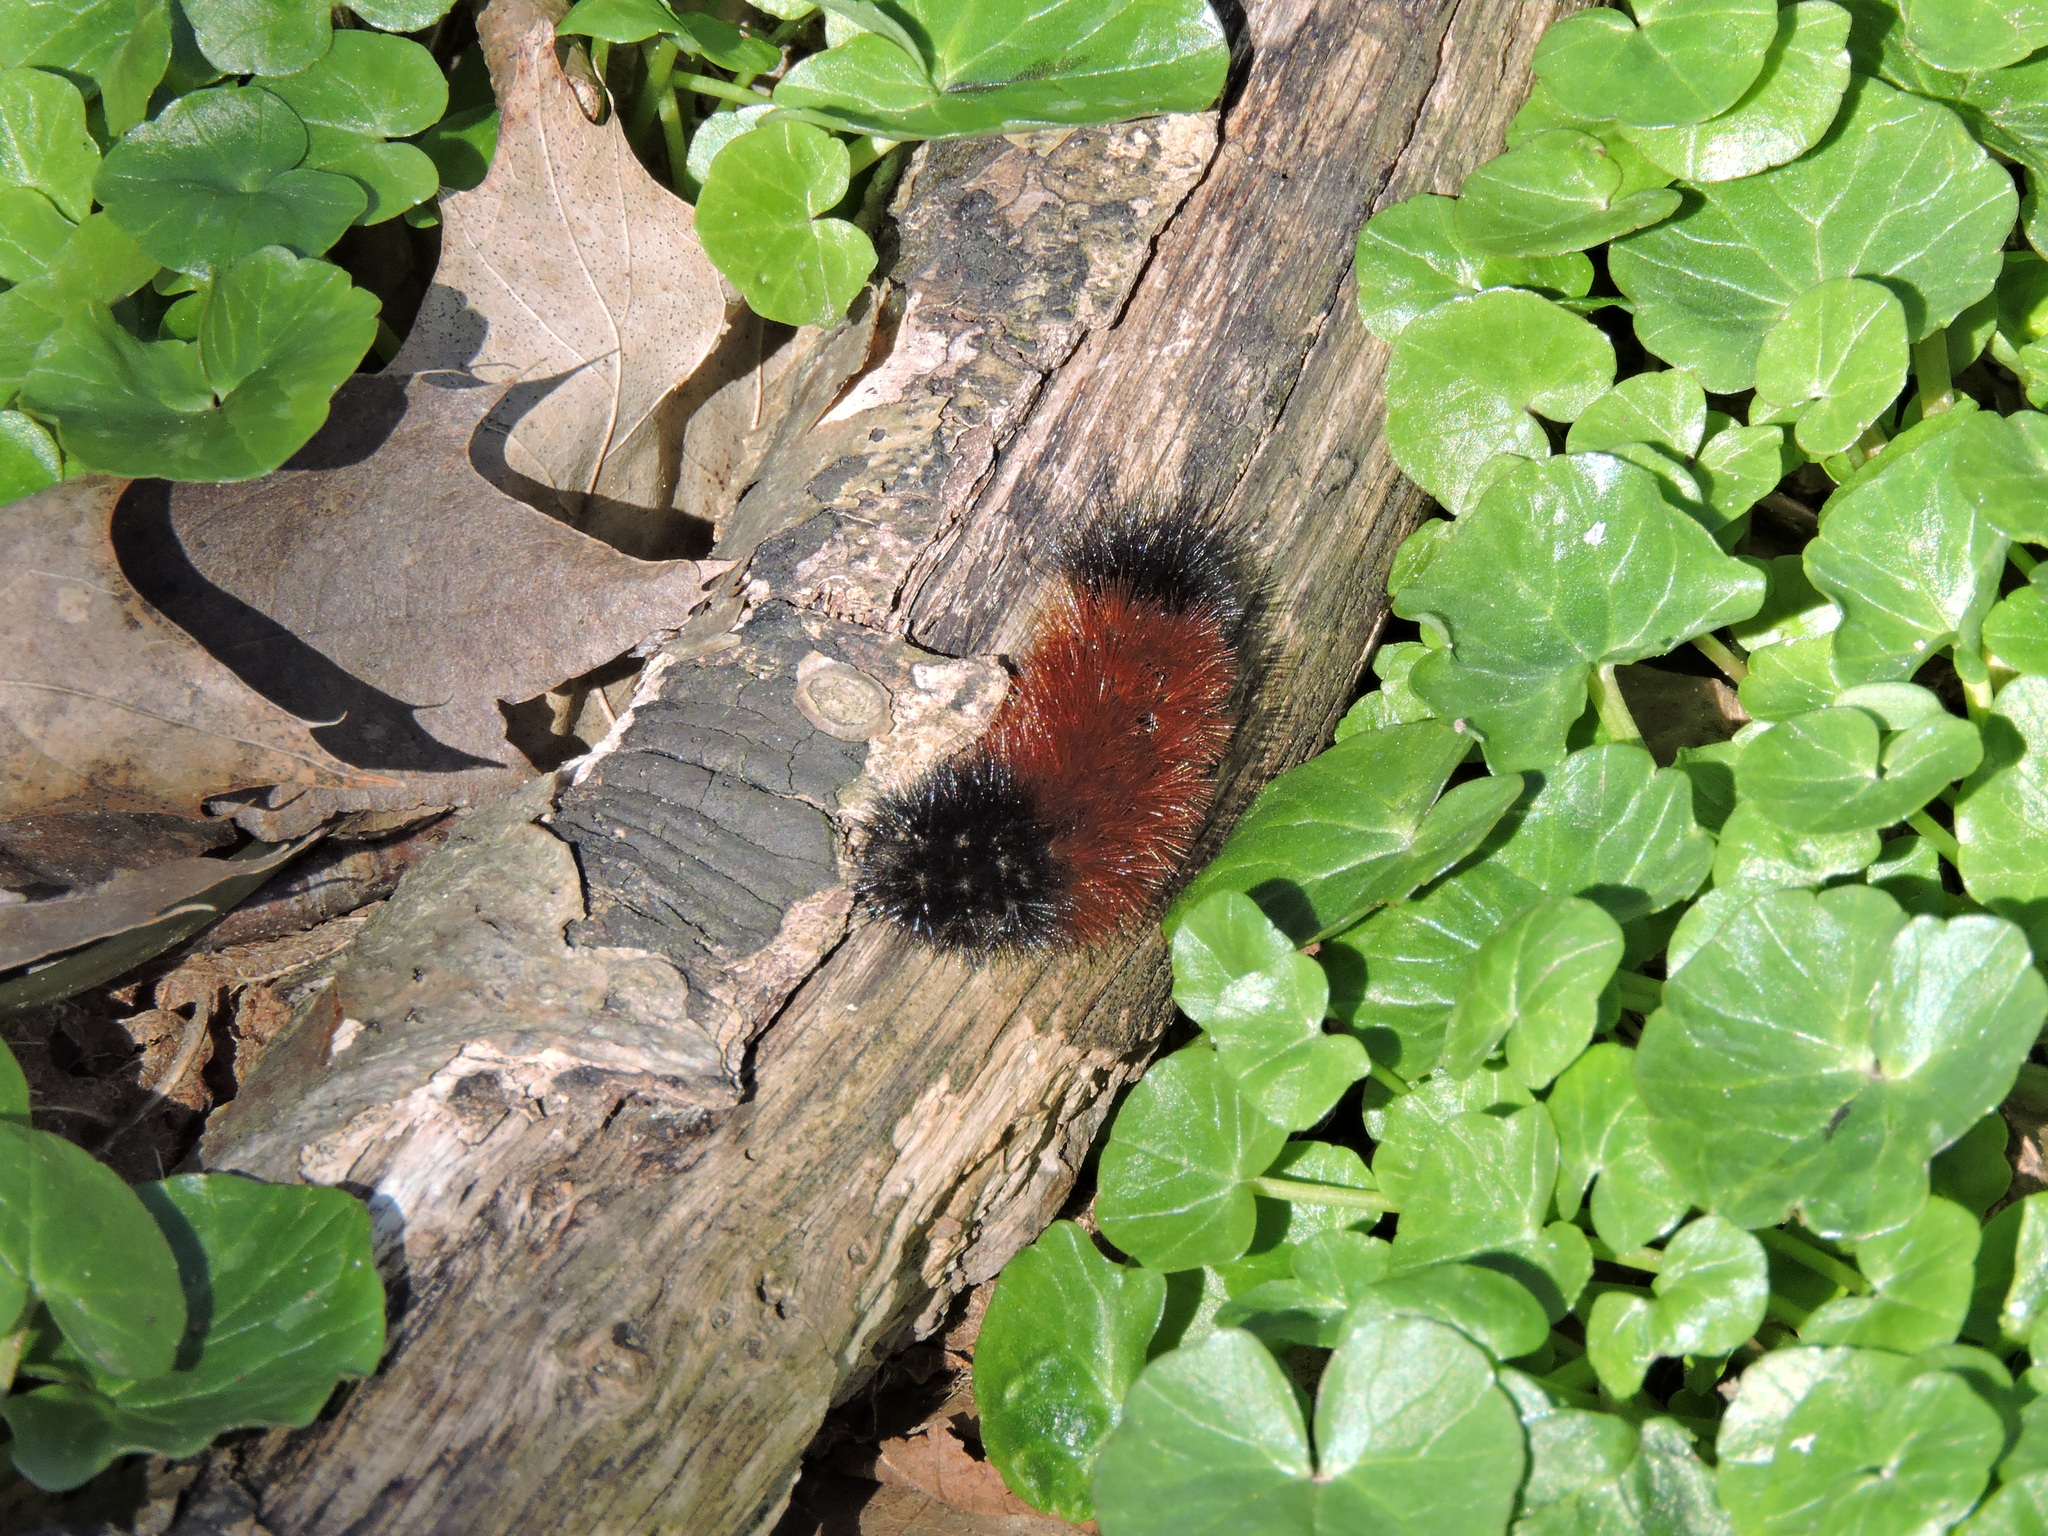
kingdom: Animalia
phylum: Arthropoda
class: Insecta
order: Lepidoptera
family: Erebidae
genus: Pyrrharctia
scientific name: Pyrrharctia isabella
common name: Isabella tiger moth
